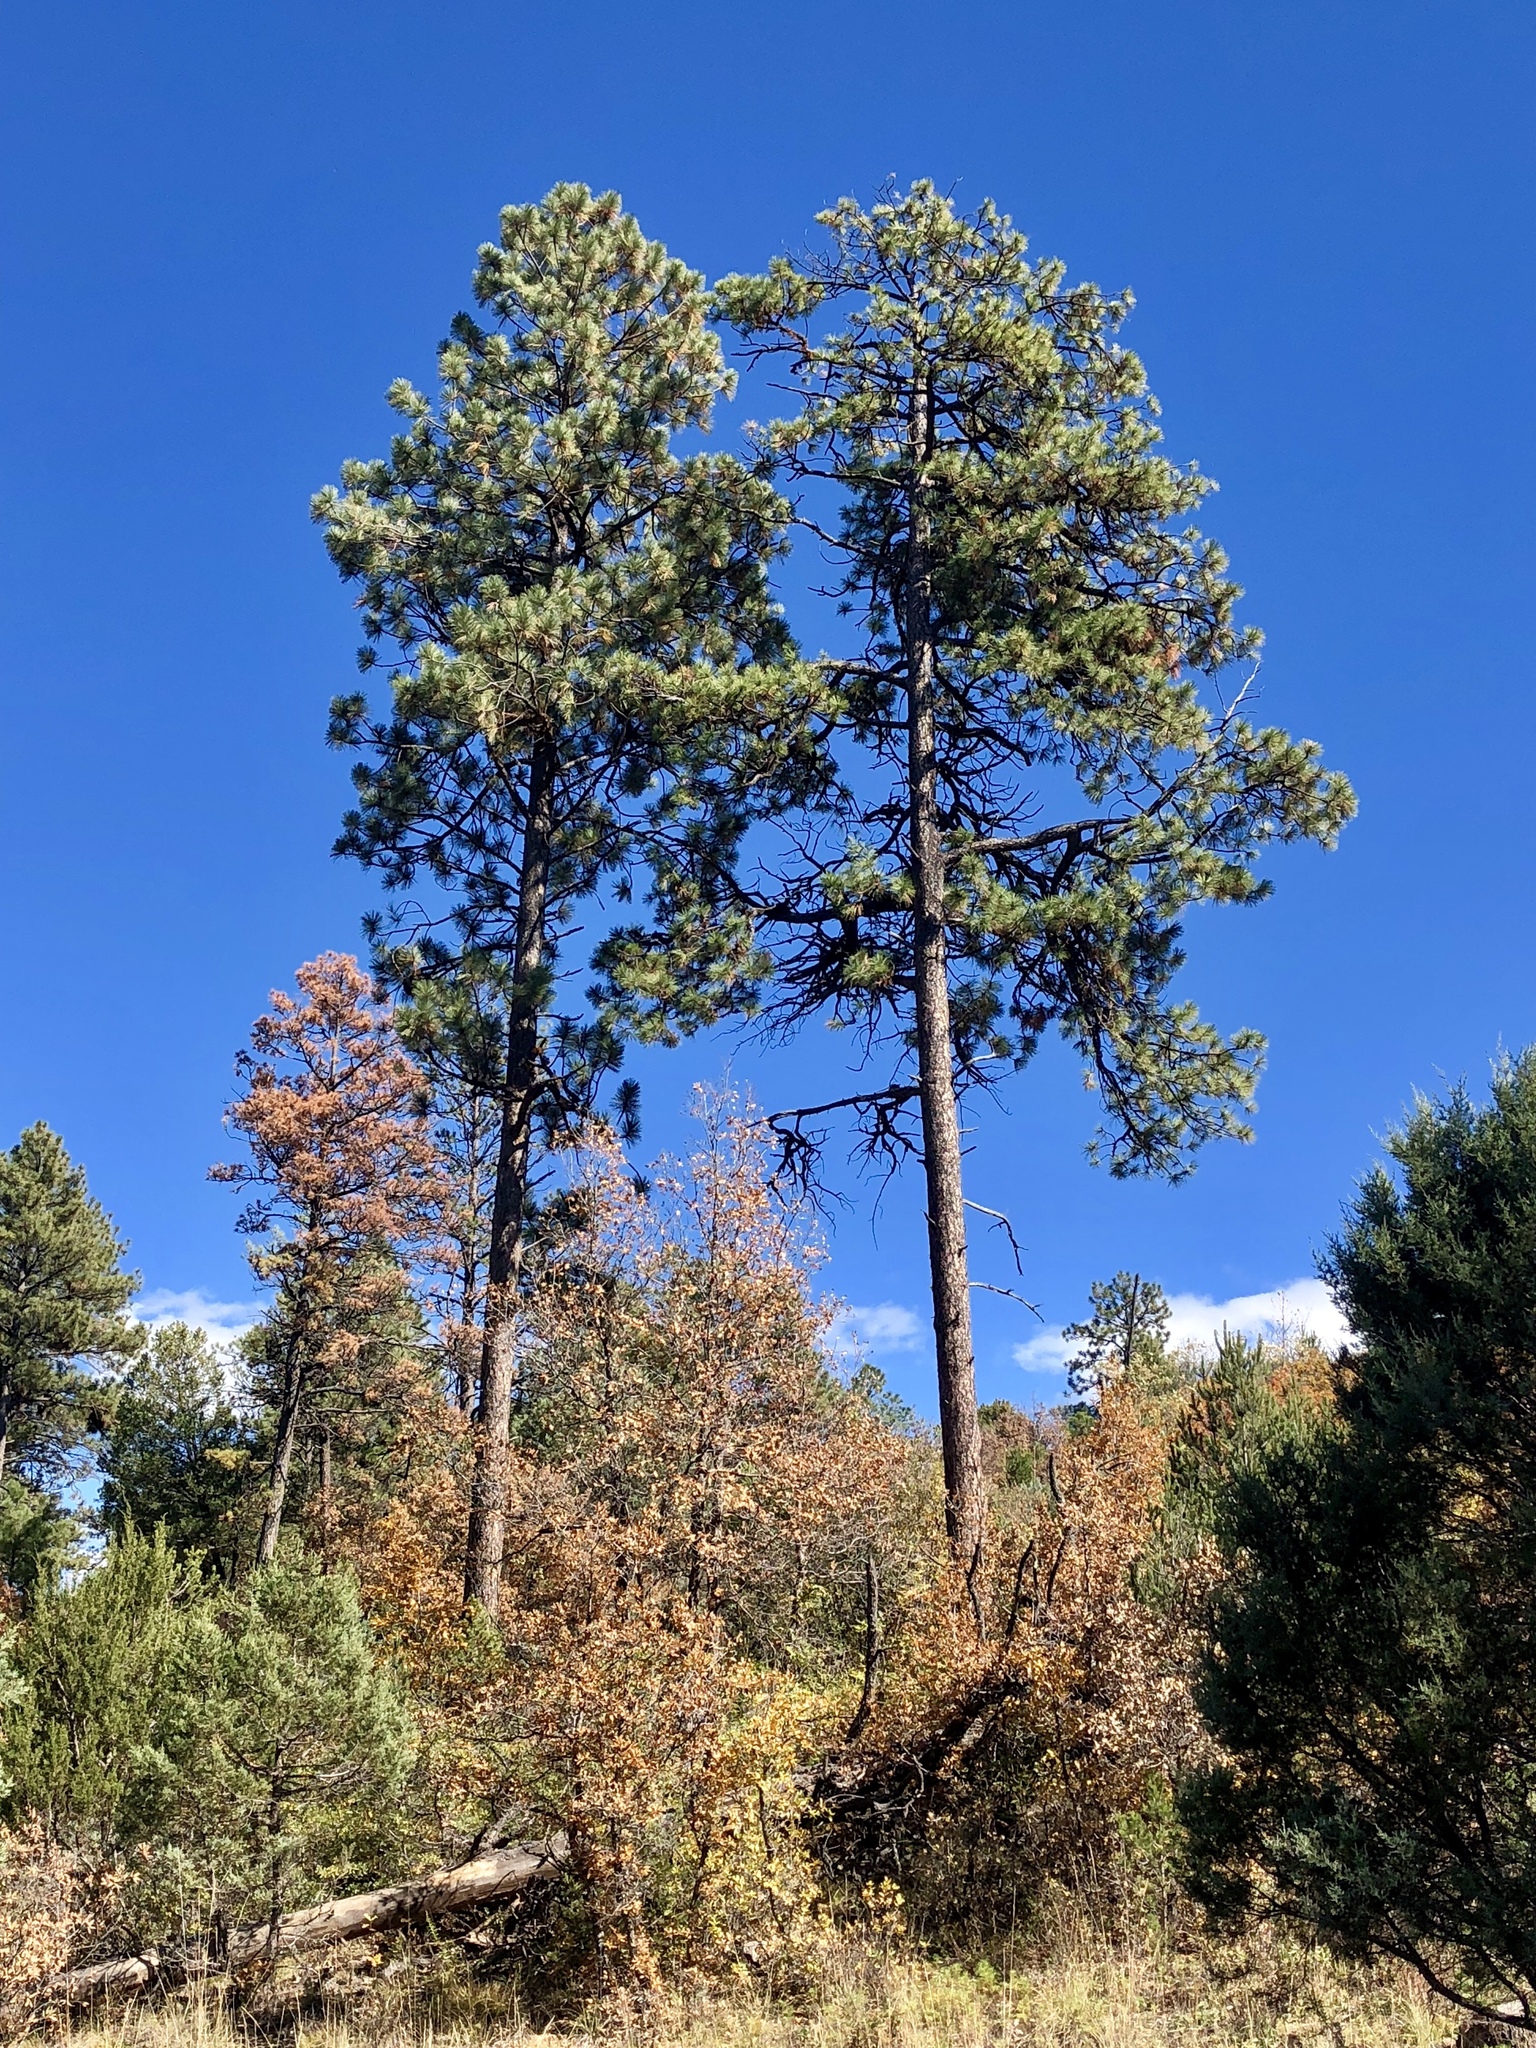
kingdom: Plantae
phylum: Tracheophyta
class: Pinopsida
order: Pinales
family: Pinaceae
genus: Pinus
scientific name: Pinus ponderosa
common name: Western yellow-pine
